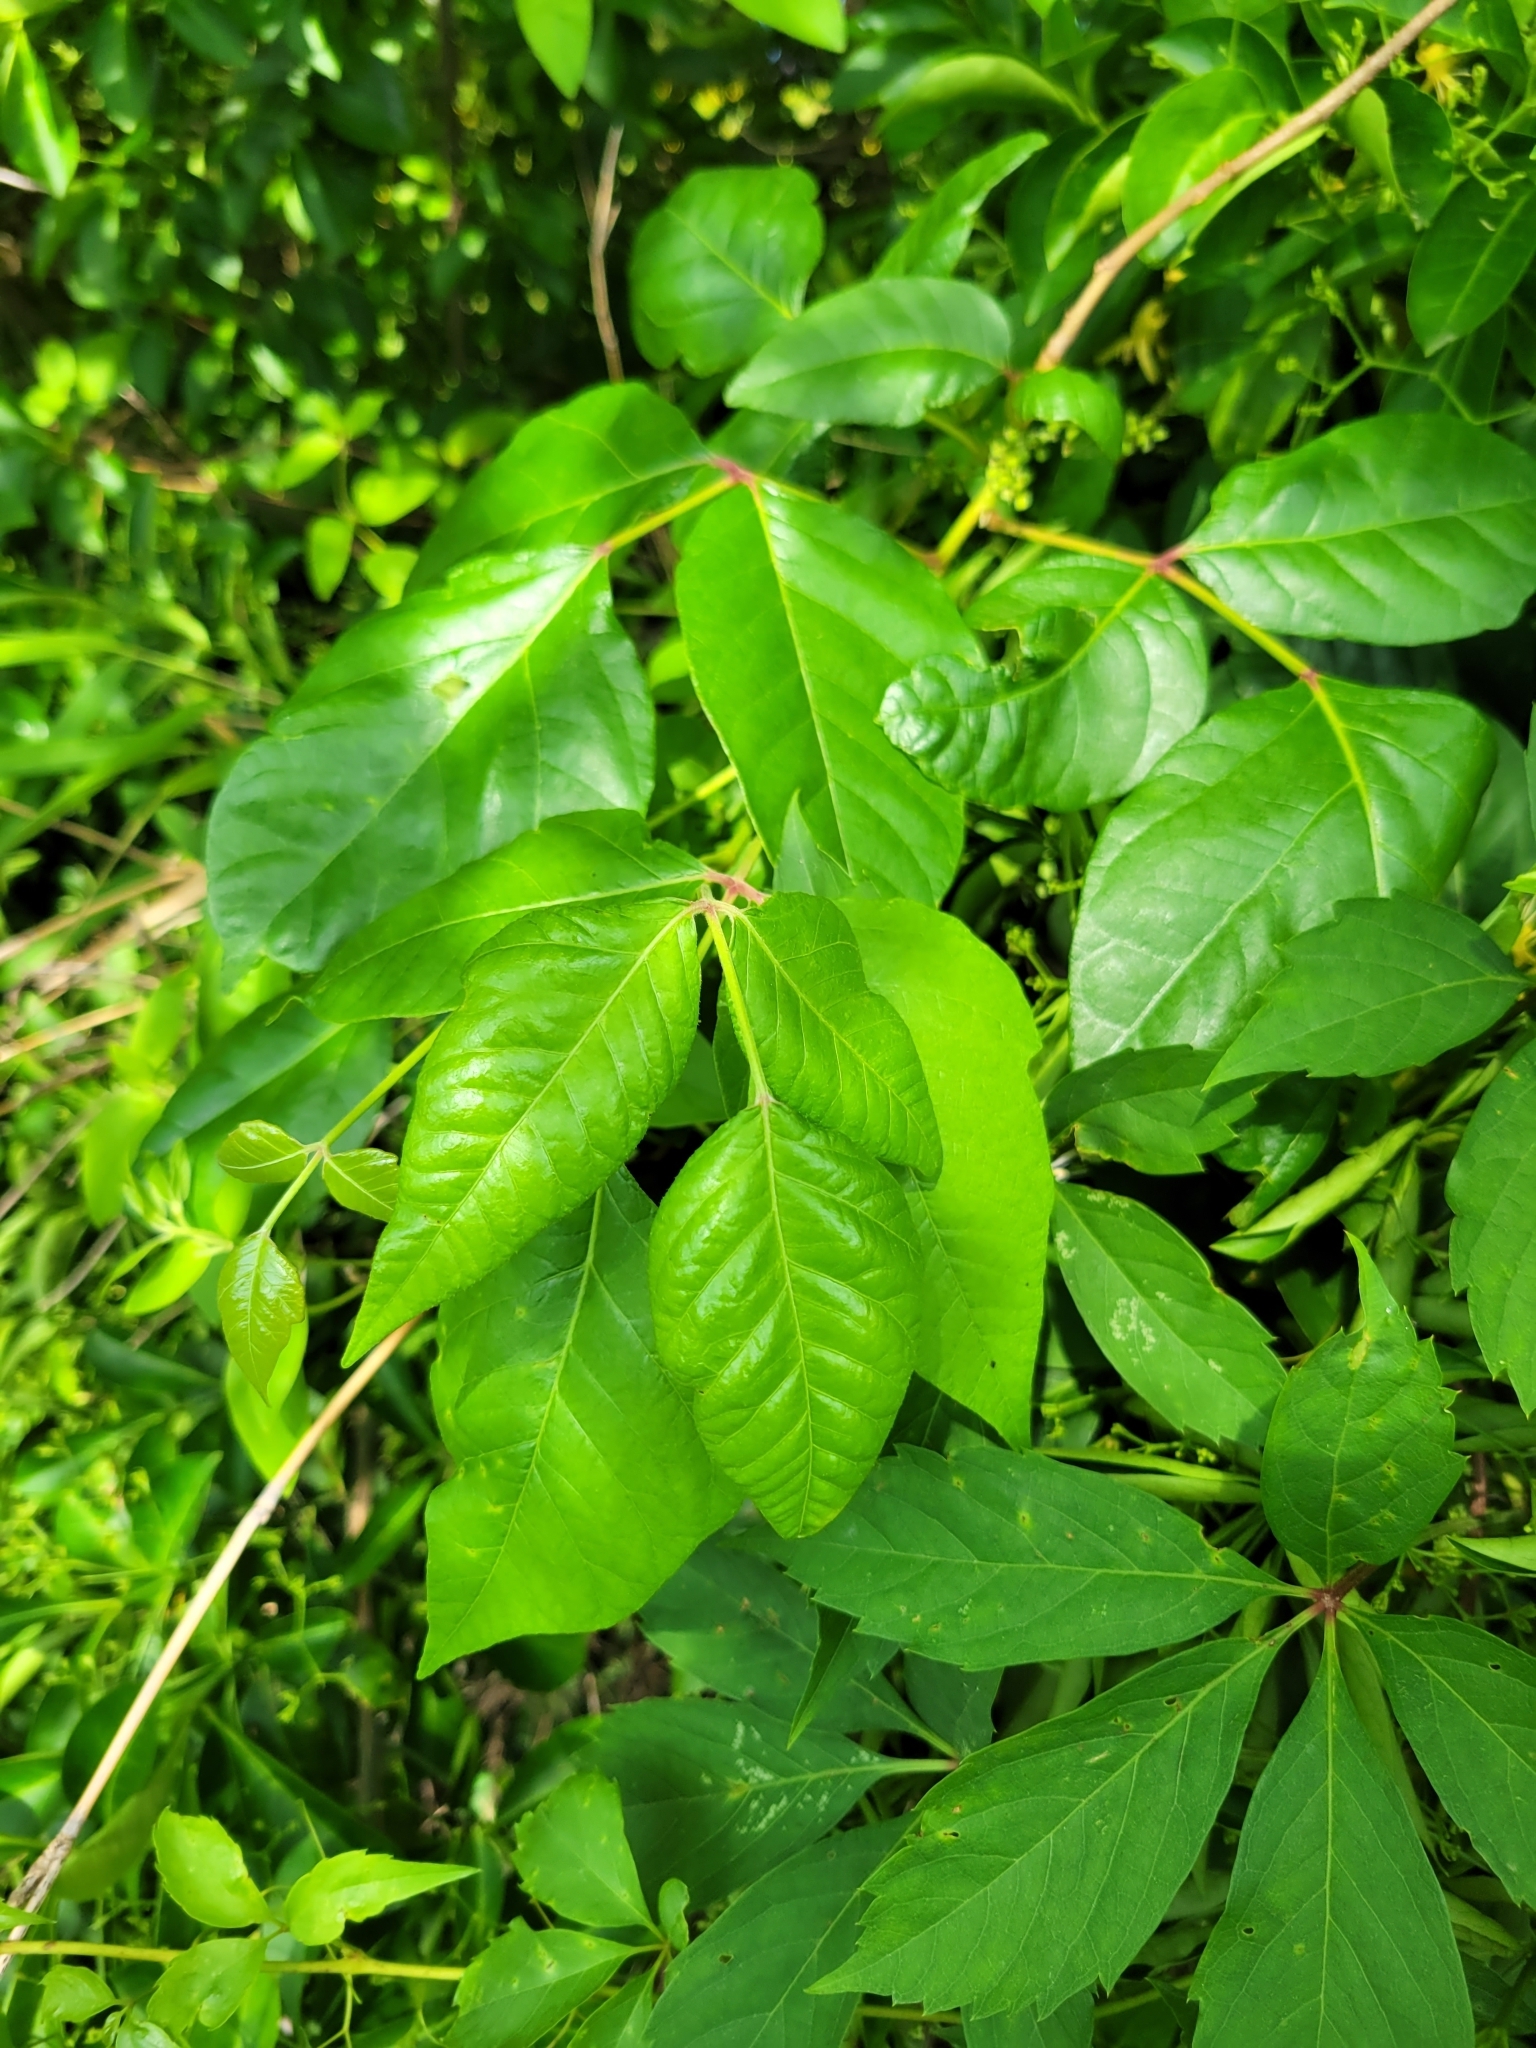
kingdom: Plantae
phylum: Tracheophyta
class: Magnoliopsida
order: Sapindales
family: Anacardiaceae
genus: Toxicodendron
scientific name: Toxicodendron radicans
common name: Poison ivy
